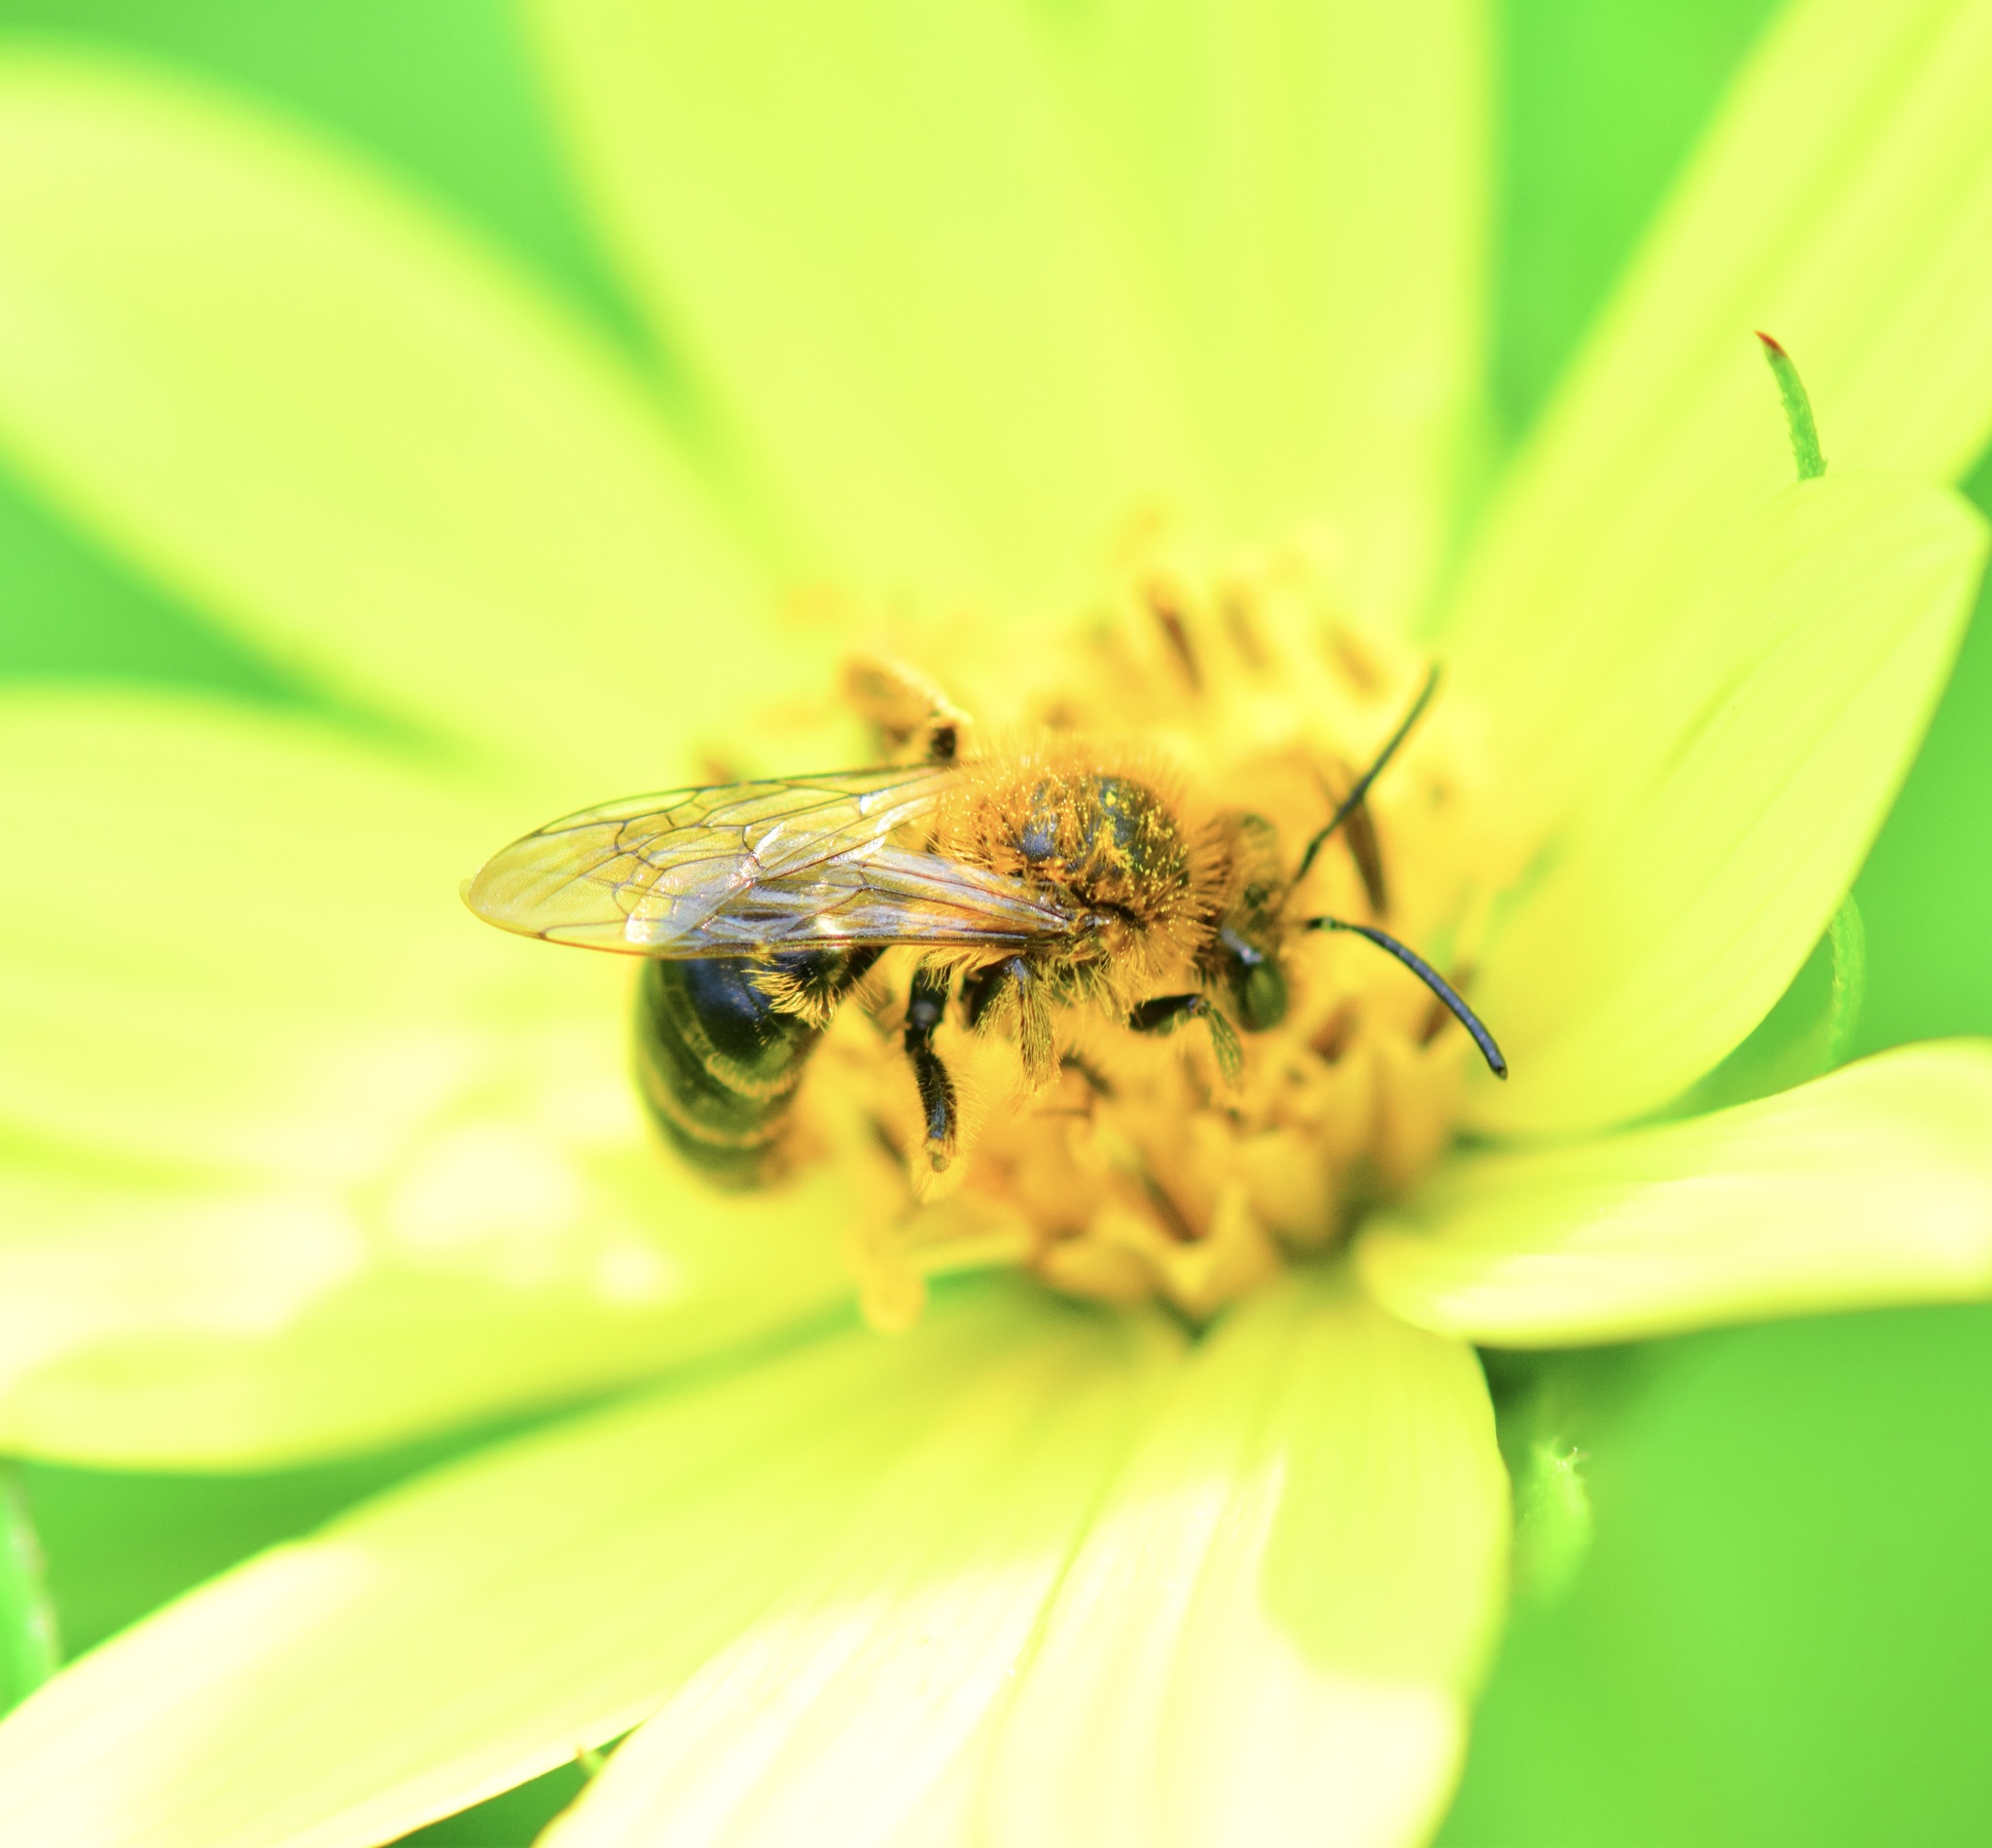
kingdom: Animalia
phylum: Arthropoda
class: Insecta
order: Hymenoptera
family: Andrenidae
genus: Andrena
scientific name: Andrena helianthi
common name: Sunflower mining bee
